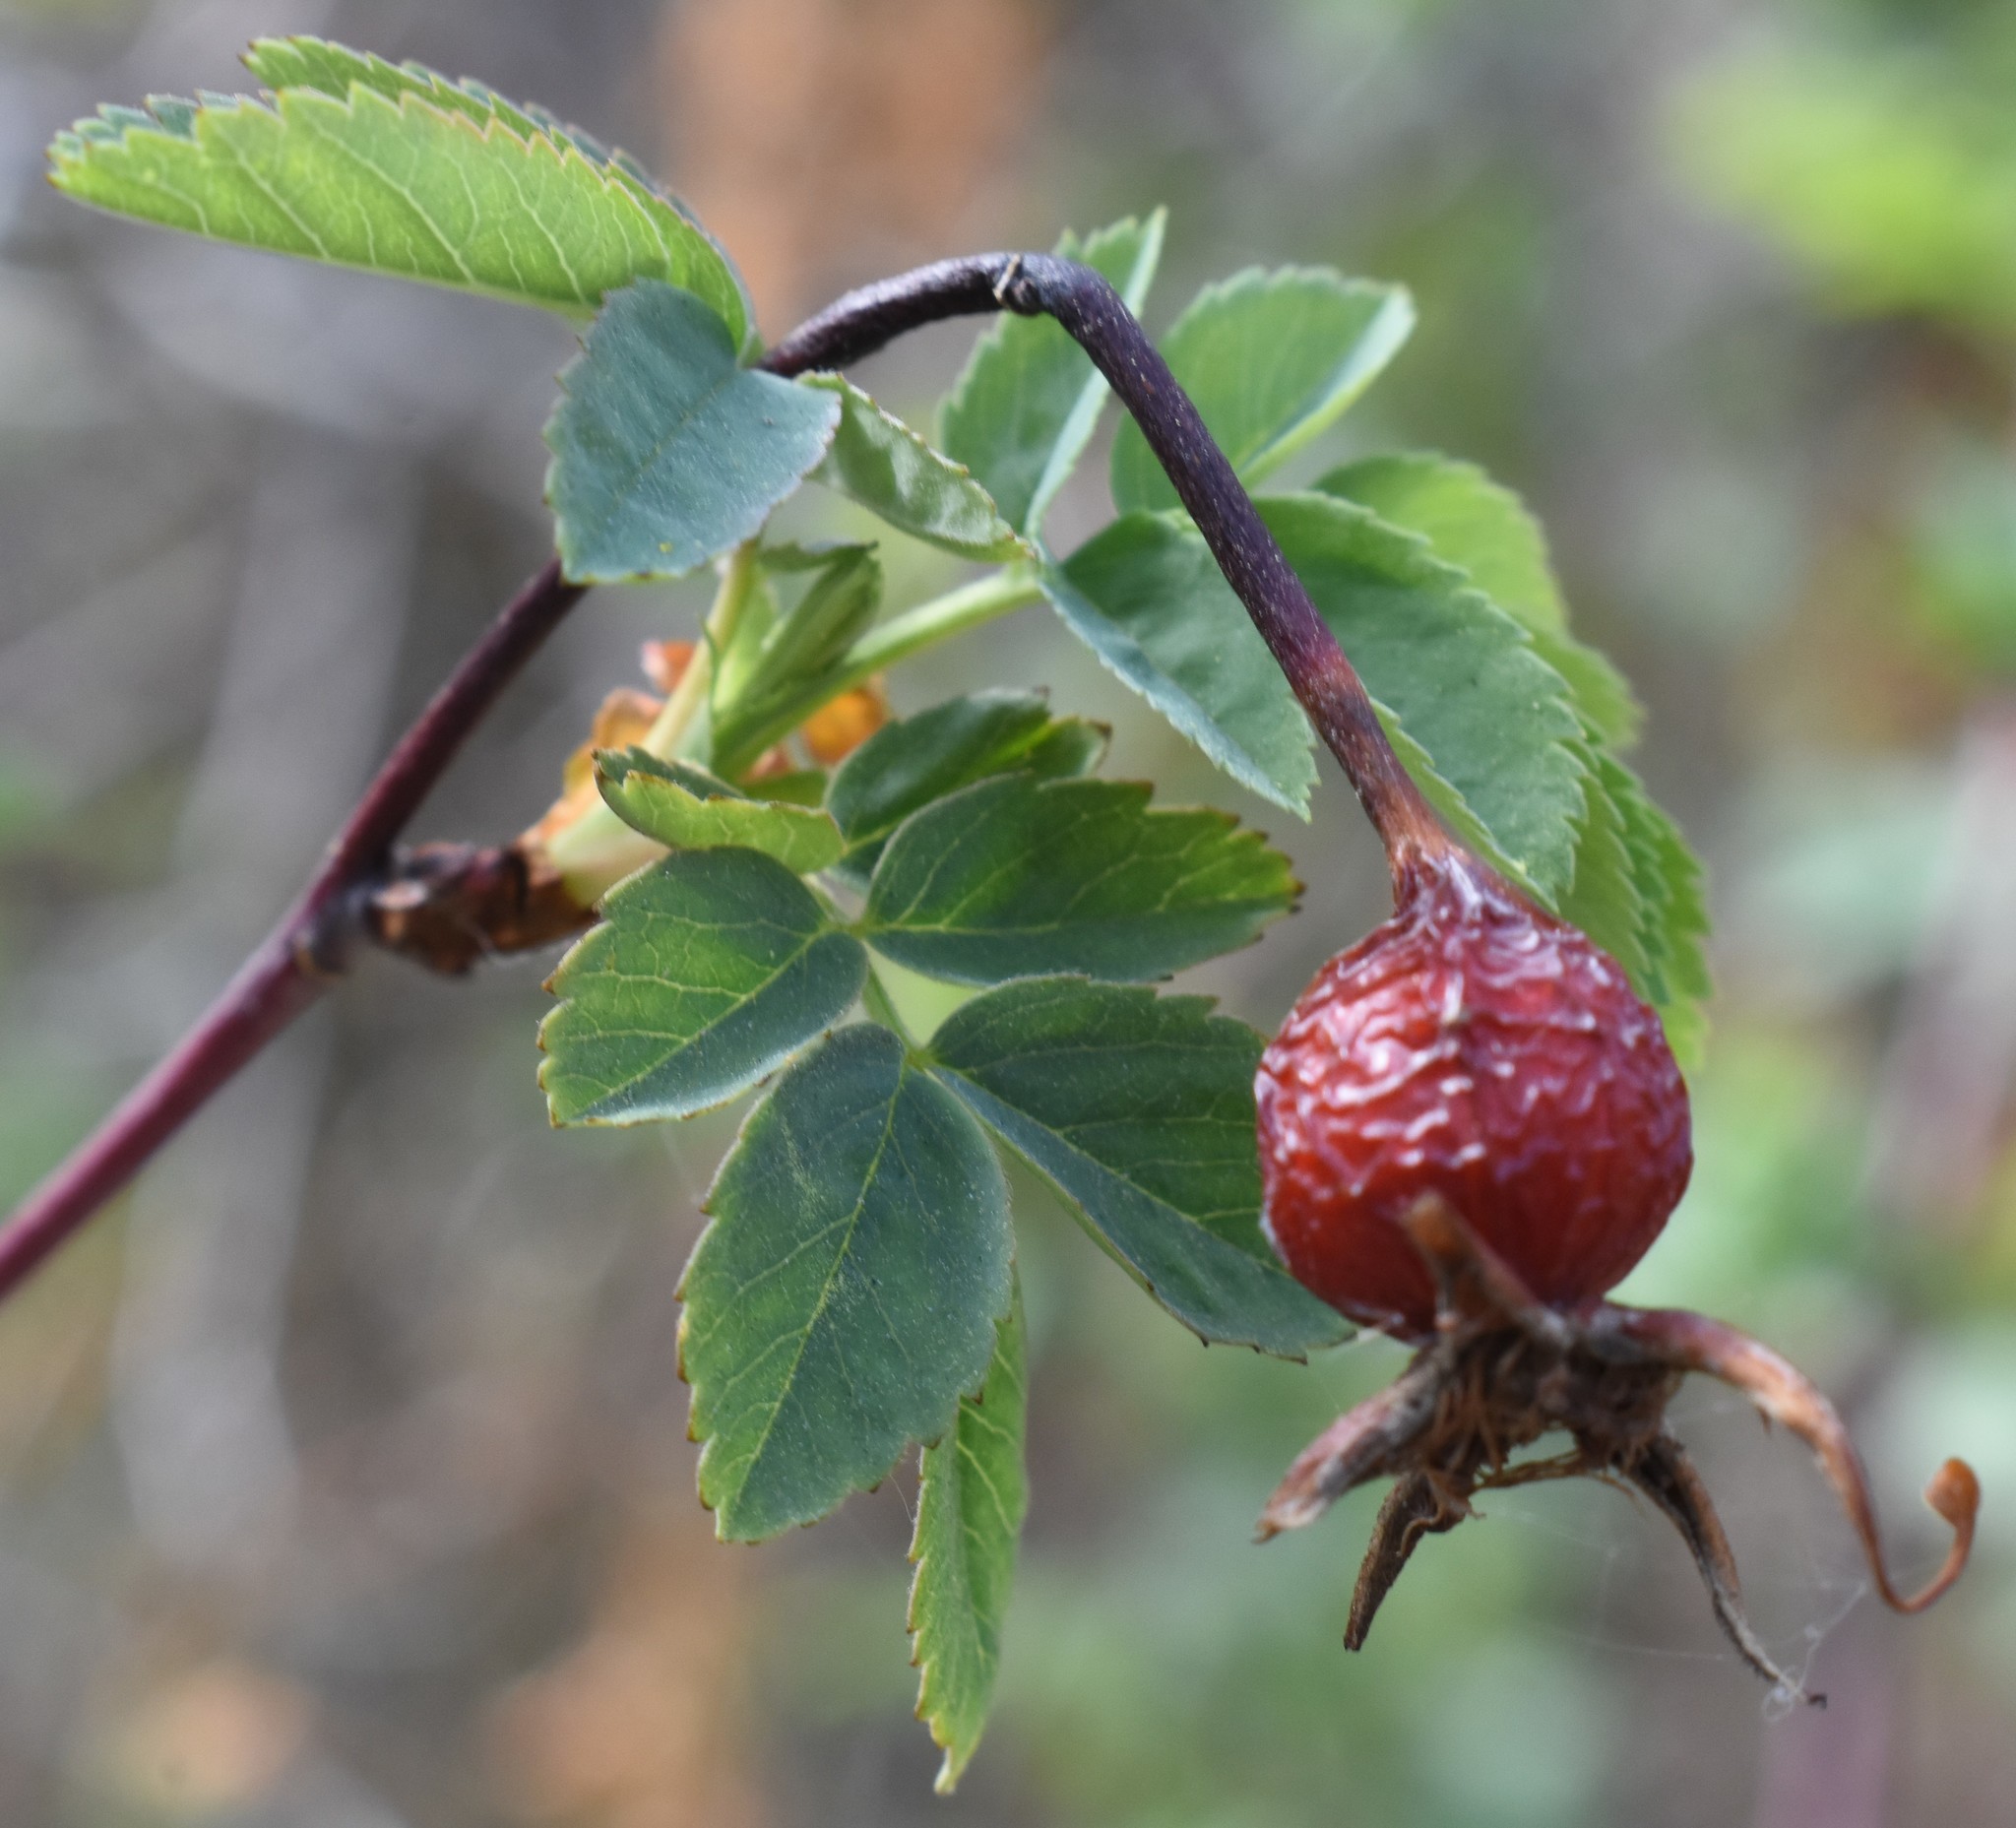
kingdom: Plantae
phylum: Tracheophyta
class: Magnoliopsida
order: Rosales
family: Rosaceae
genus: Rosa
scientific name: Rosa woodsii
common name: Woods's rose
